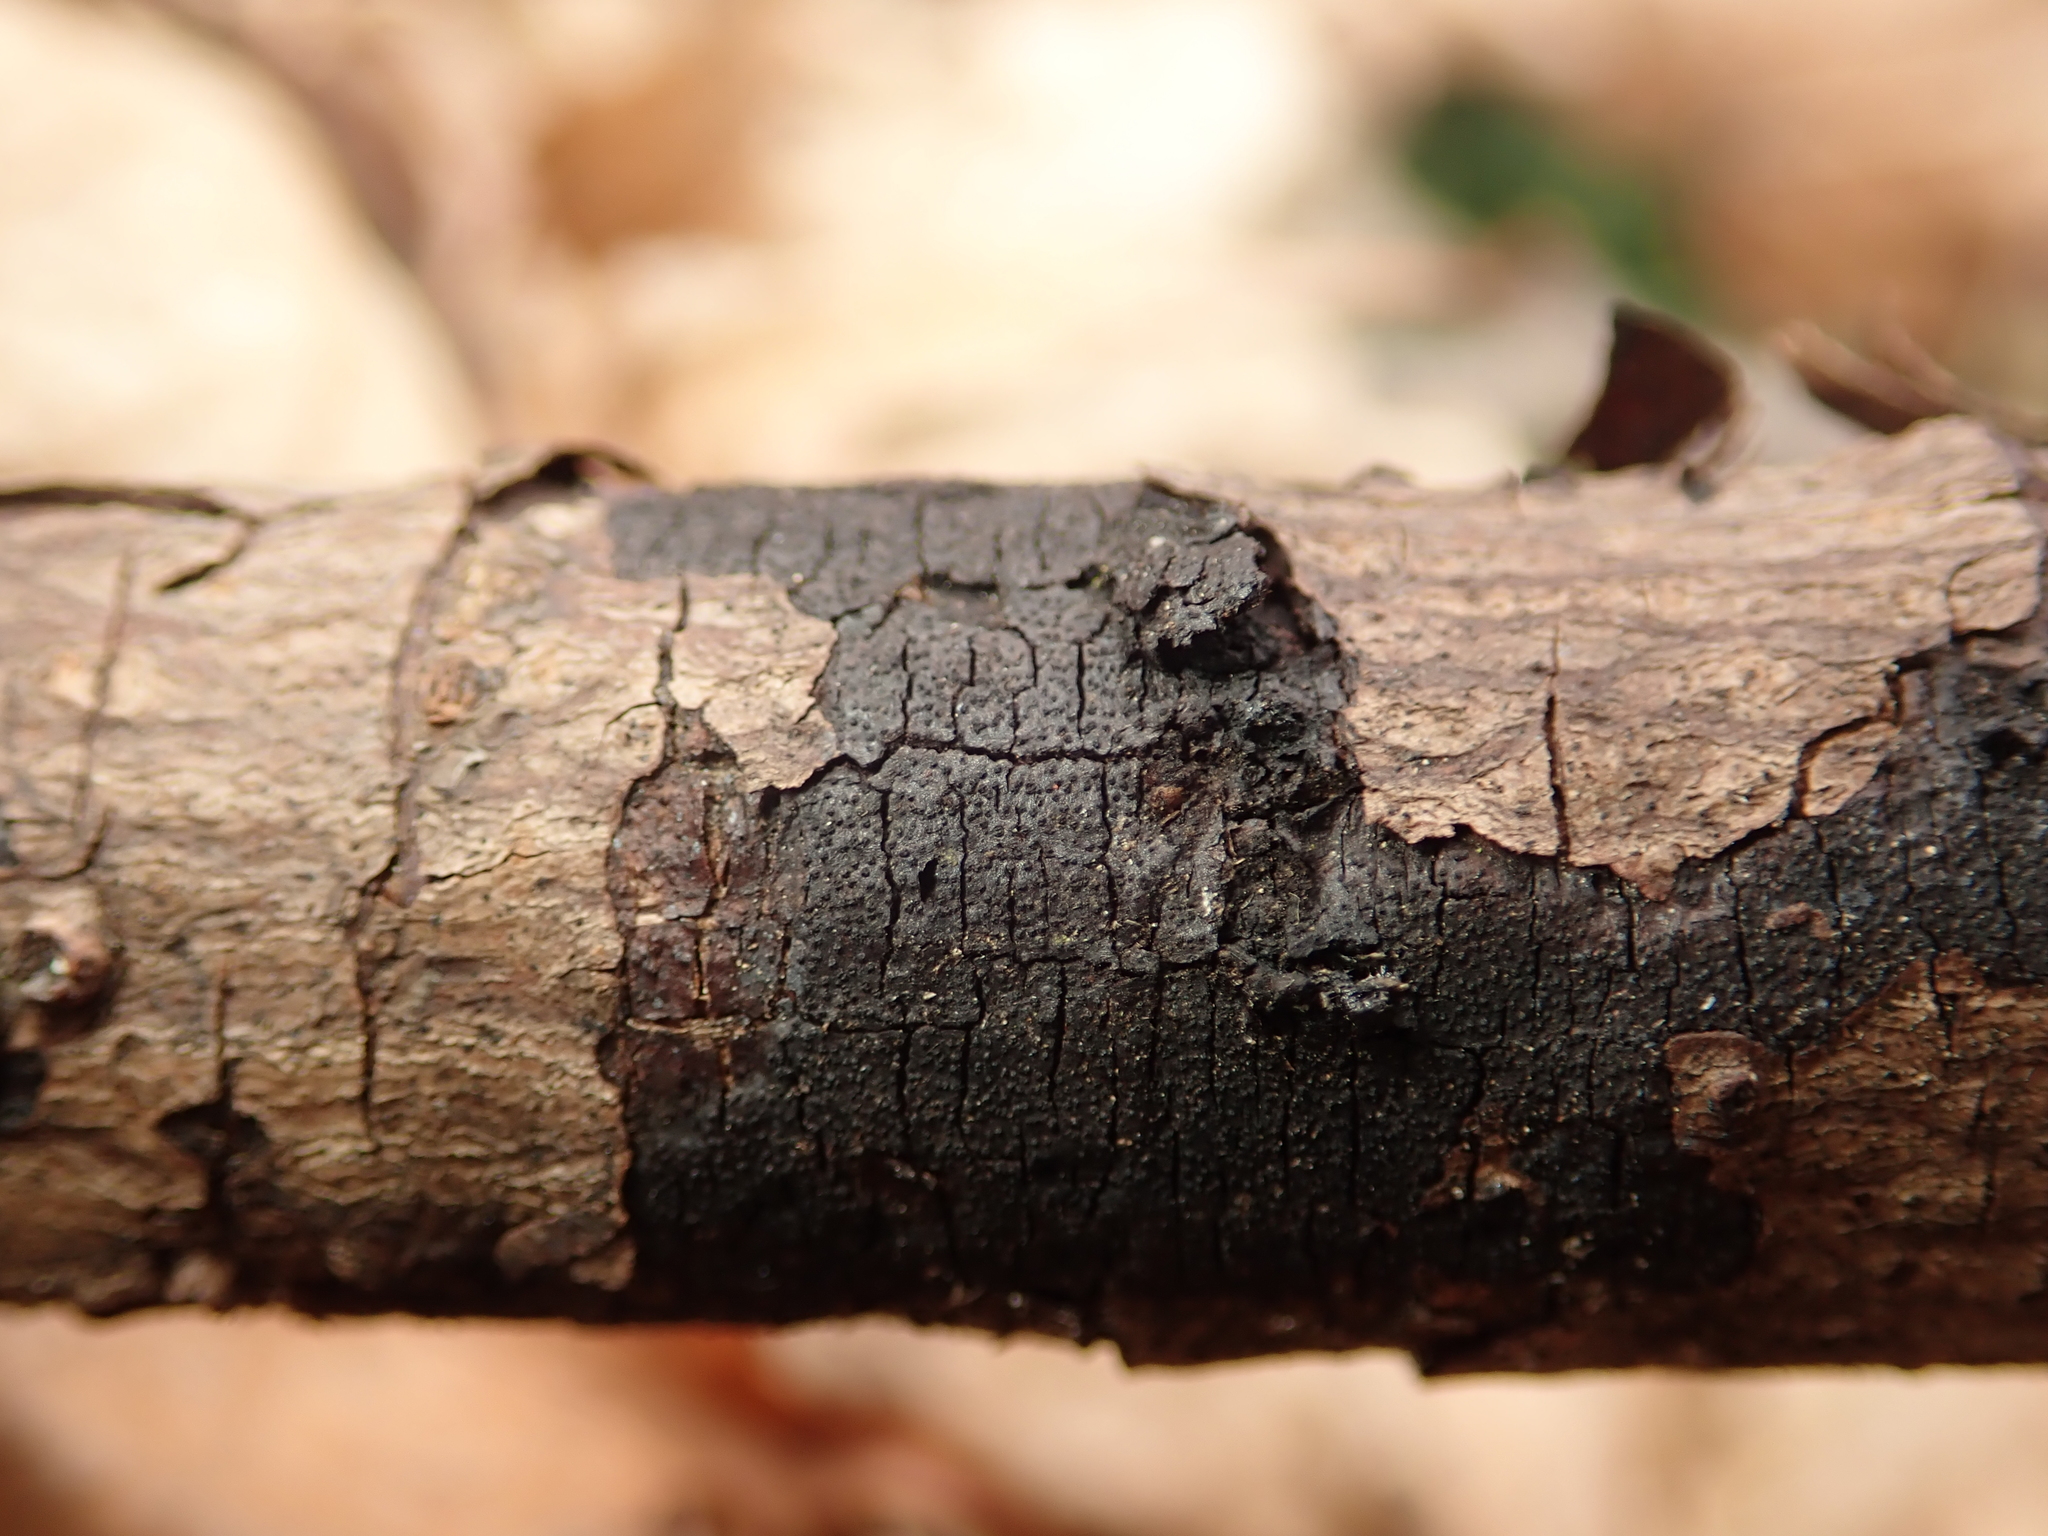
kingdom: Fungi
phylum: Ascomycota
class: Sordariomycetes
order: Xylariales
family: Diatrypaceae
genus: Diatrype
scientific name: Diatrype stigma
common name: Common tarcrust
